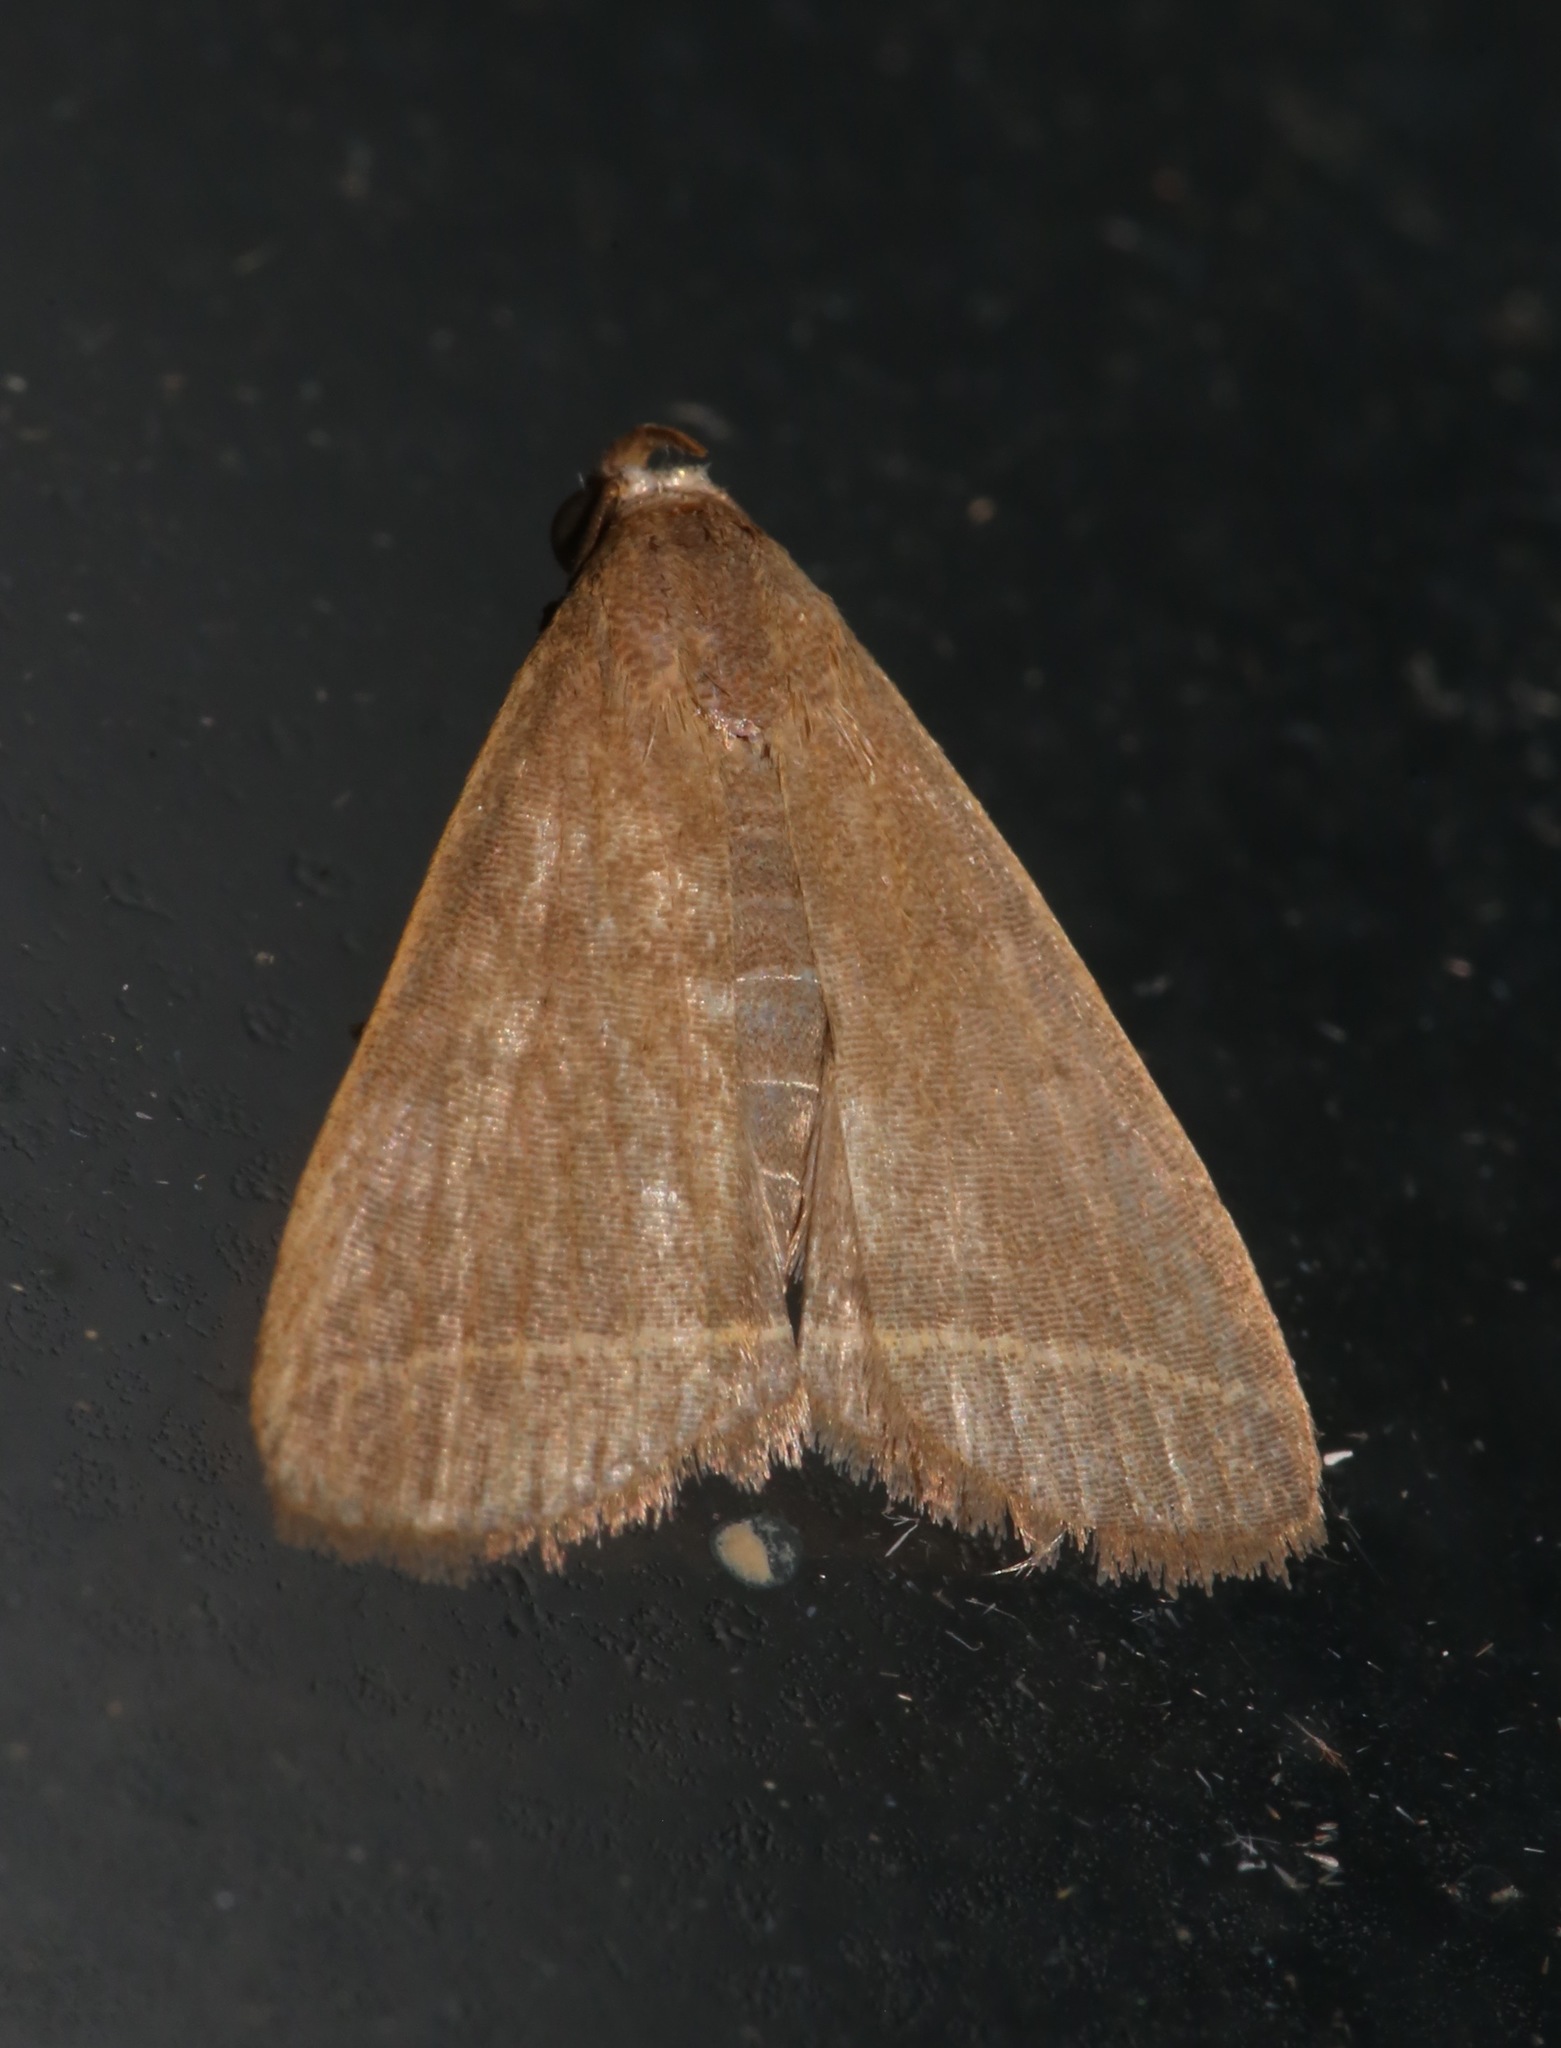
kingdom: Animalia
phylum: Arthropoda
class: Insecta
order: Lepidoptera
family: Erebidae
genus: Simplicia
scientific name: Simplicia cornicalis
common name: Tiki hut litter moth
